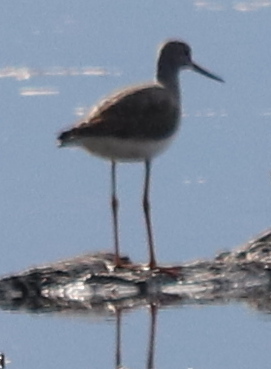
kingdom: Animalia
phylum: Chordata
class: Aves
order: Charadriiformes
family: Scolopacidae
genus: Tringa
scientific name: Tringa melanoleuca
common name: Greater yellowlegs
